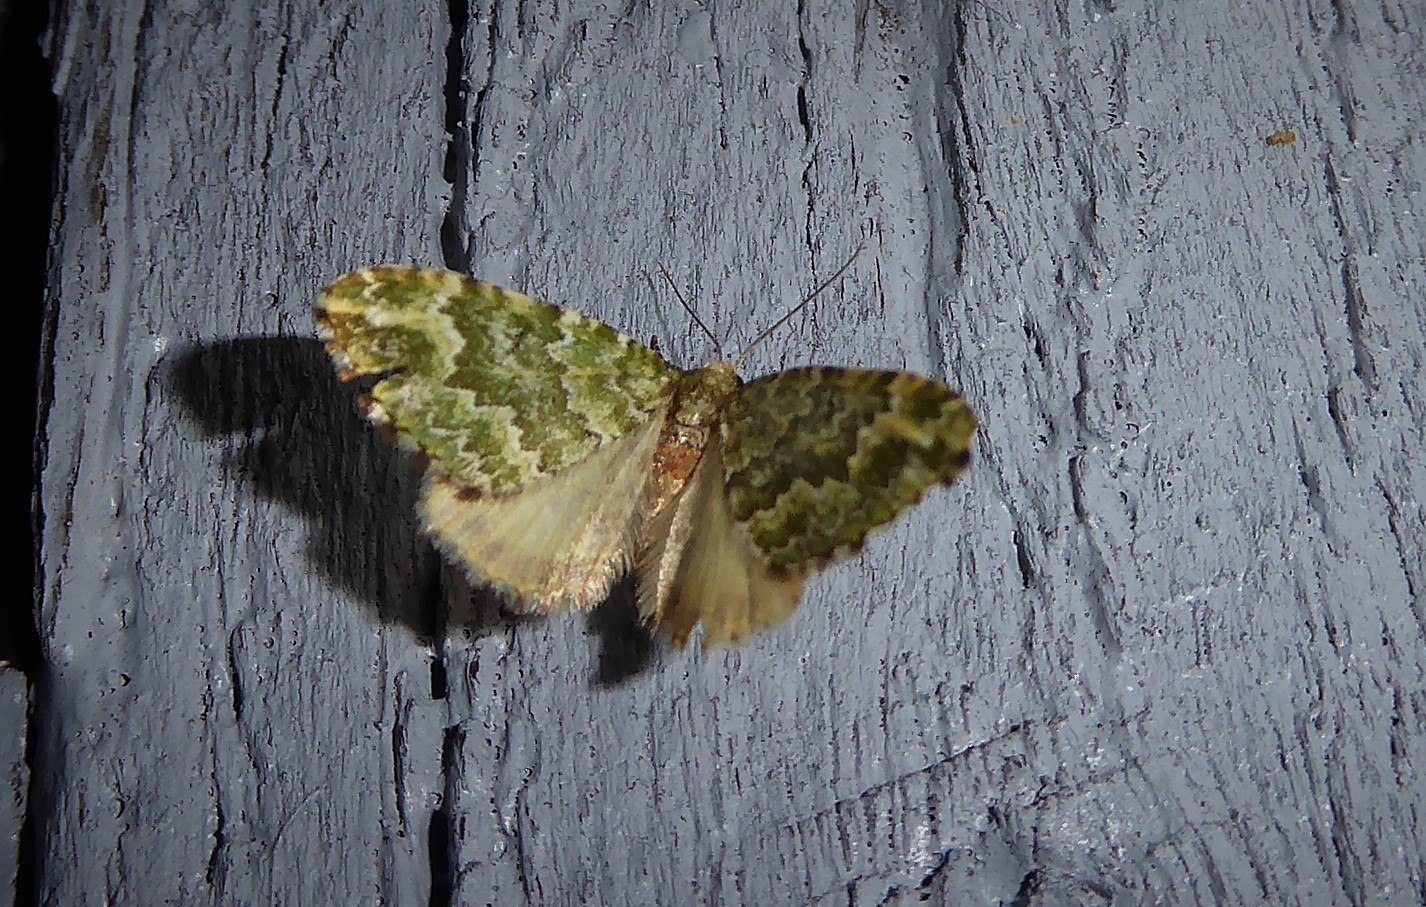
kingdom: Animalia
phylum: Arthropoda
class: Insecta
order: Lepidoptera
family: Geometridae
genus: Asaphodes
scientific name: Asaphodes beata
